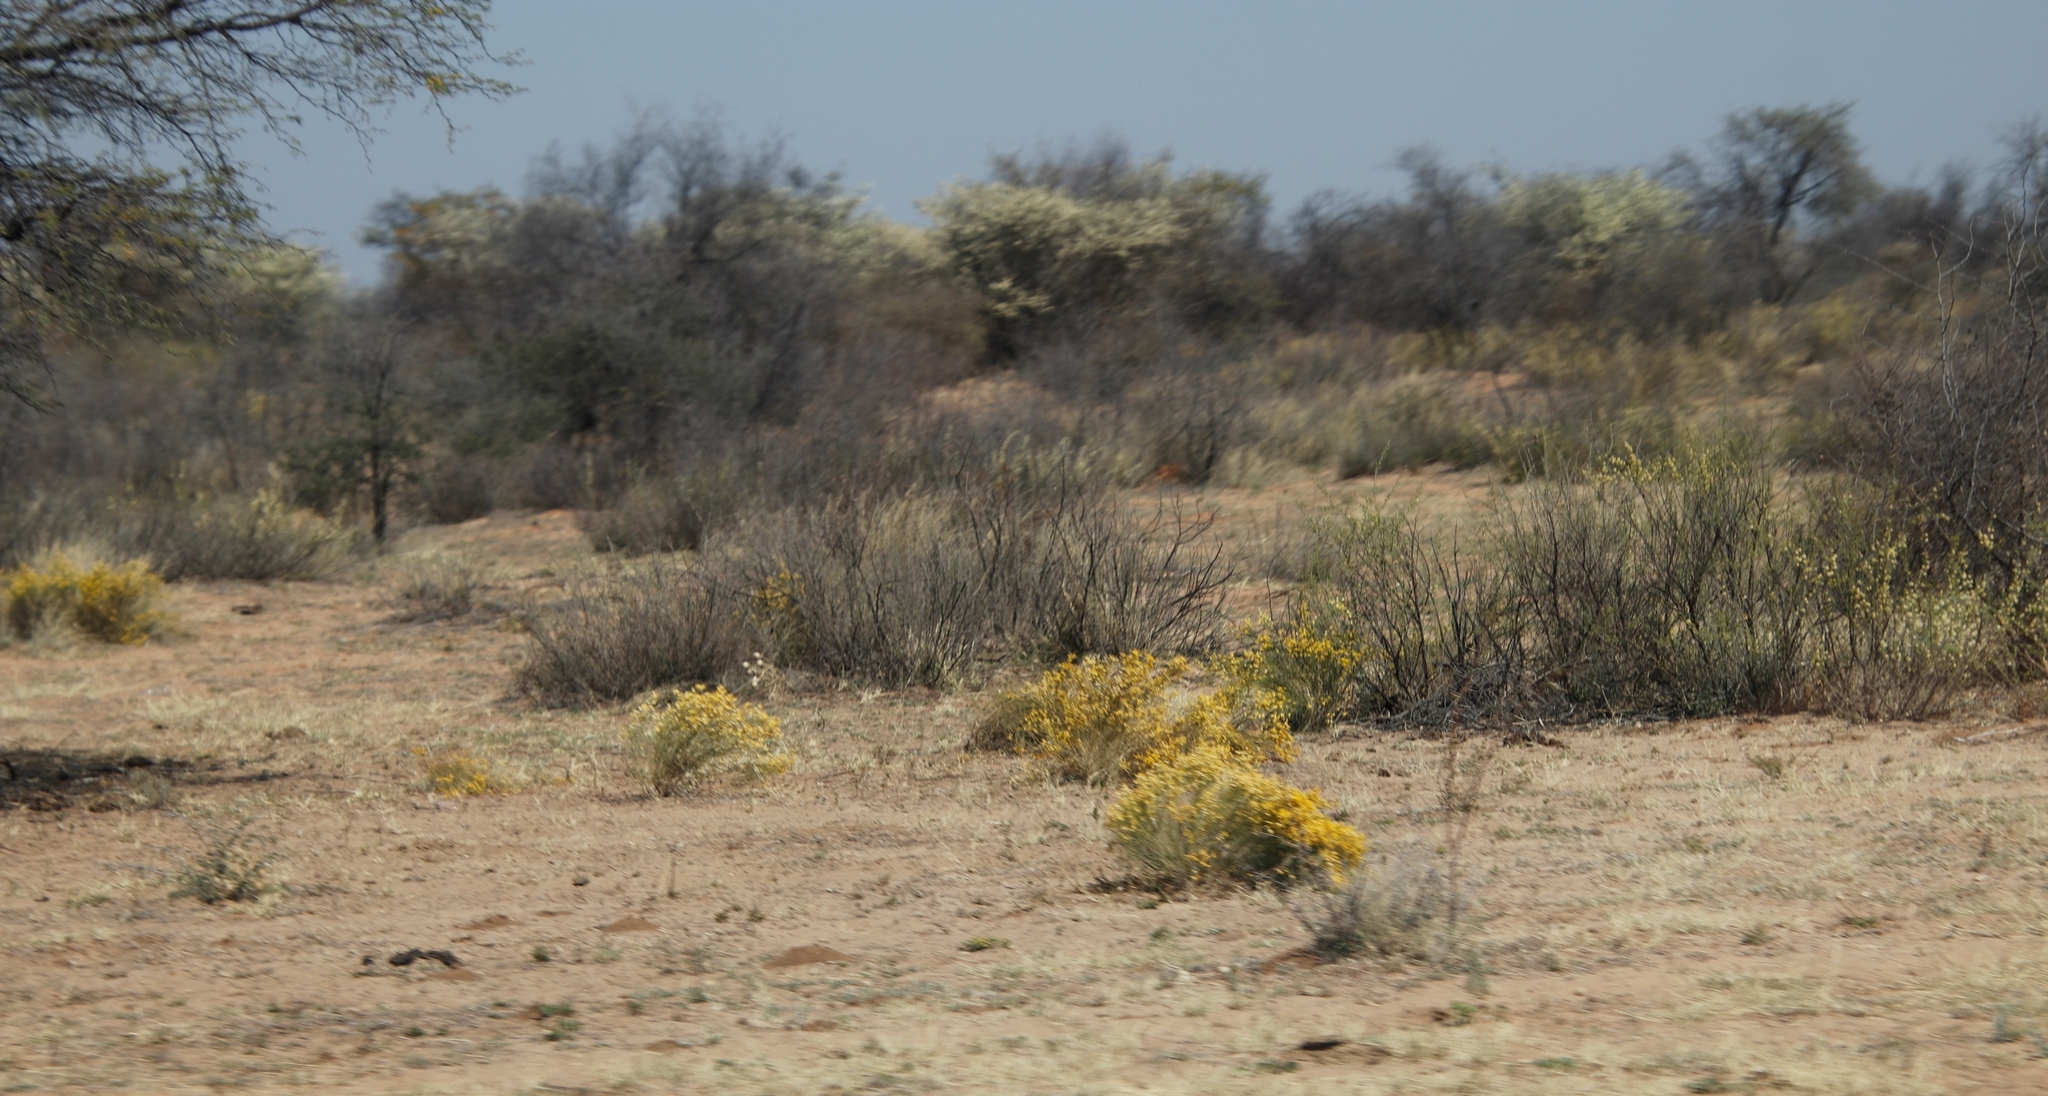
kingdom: Plantae
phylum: Tracheophyta
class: Magnoliopsida
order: Fabales
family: Fabaceae
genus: Senegalia
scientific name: Senegalia mellifera
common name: Hookthorn
